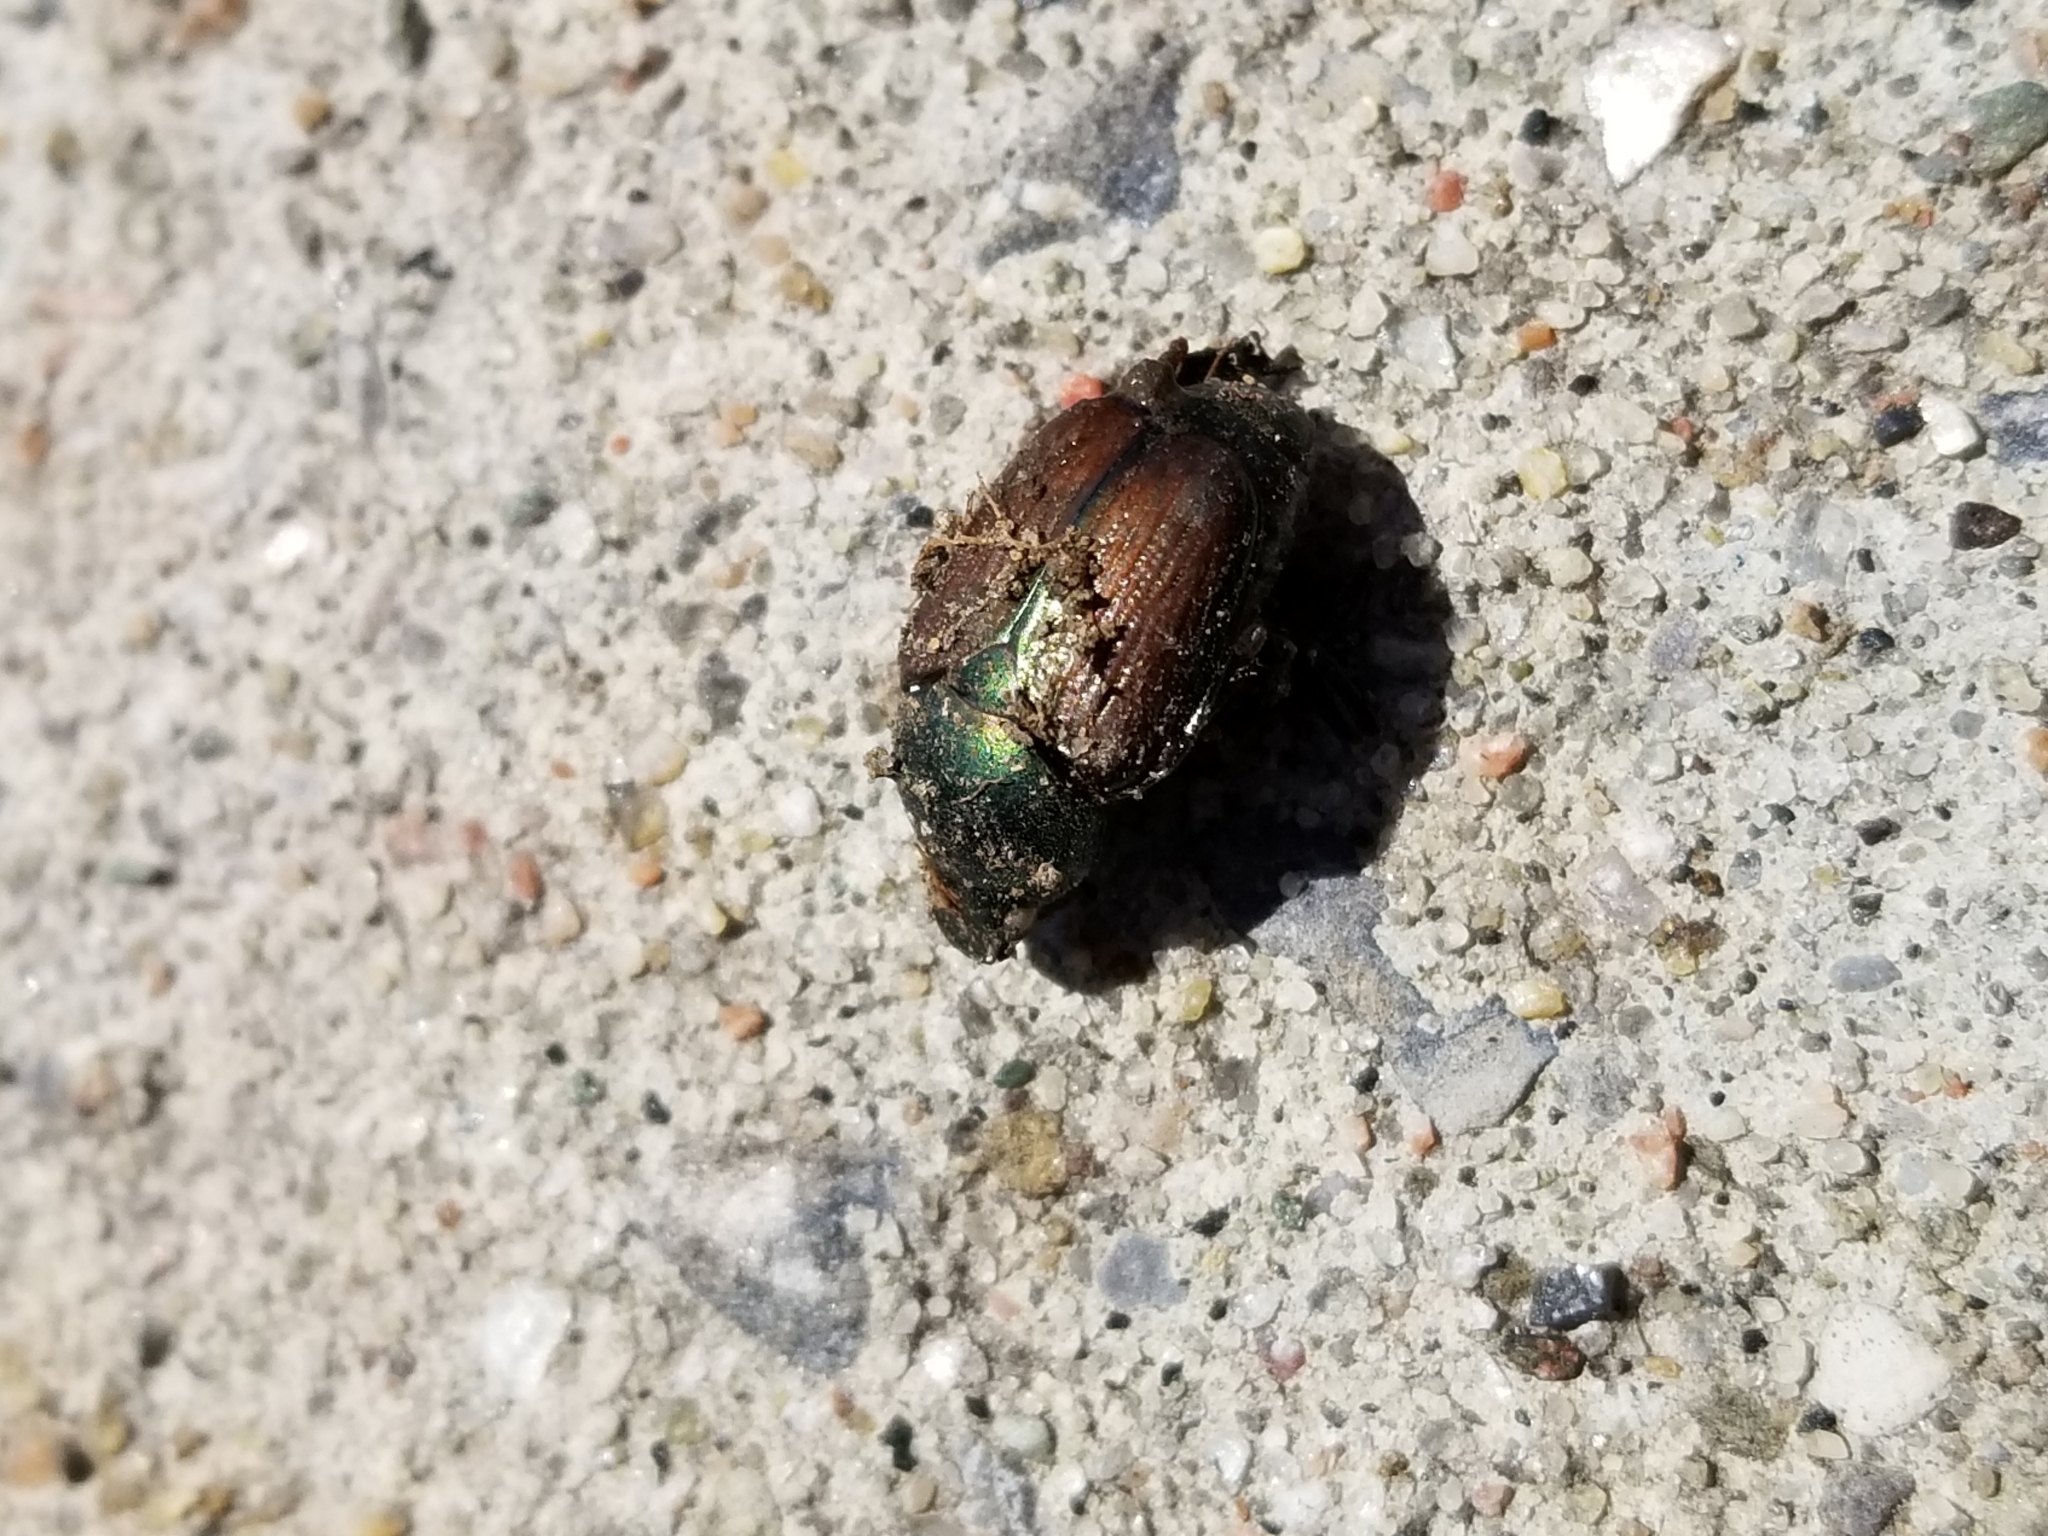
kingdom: Animalia
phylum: Arthropoda
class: Insecta
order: Coleoptera
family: Scarabaeidae
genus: Popillia
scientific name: Popillia japonica
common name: Japanese beetle
